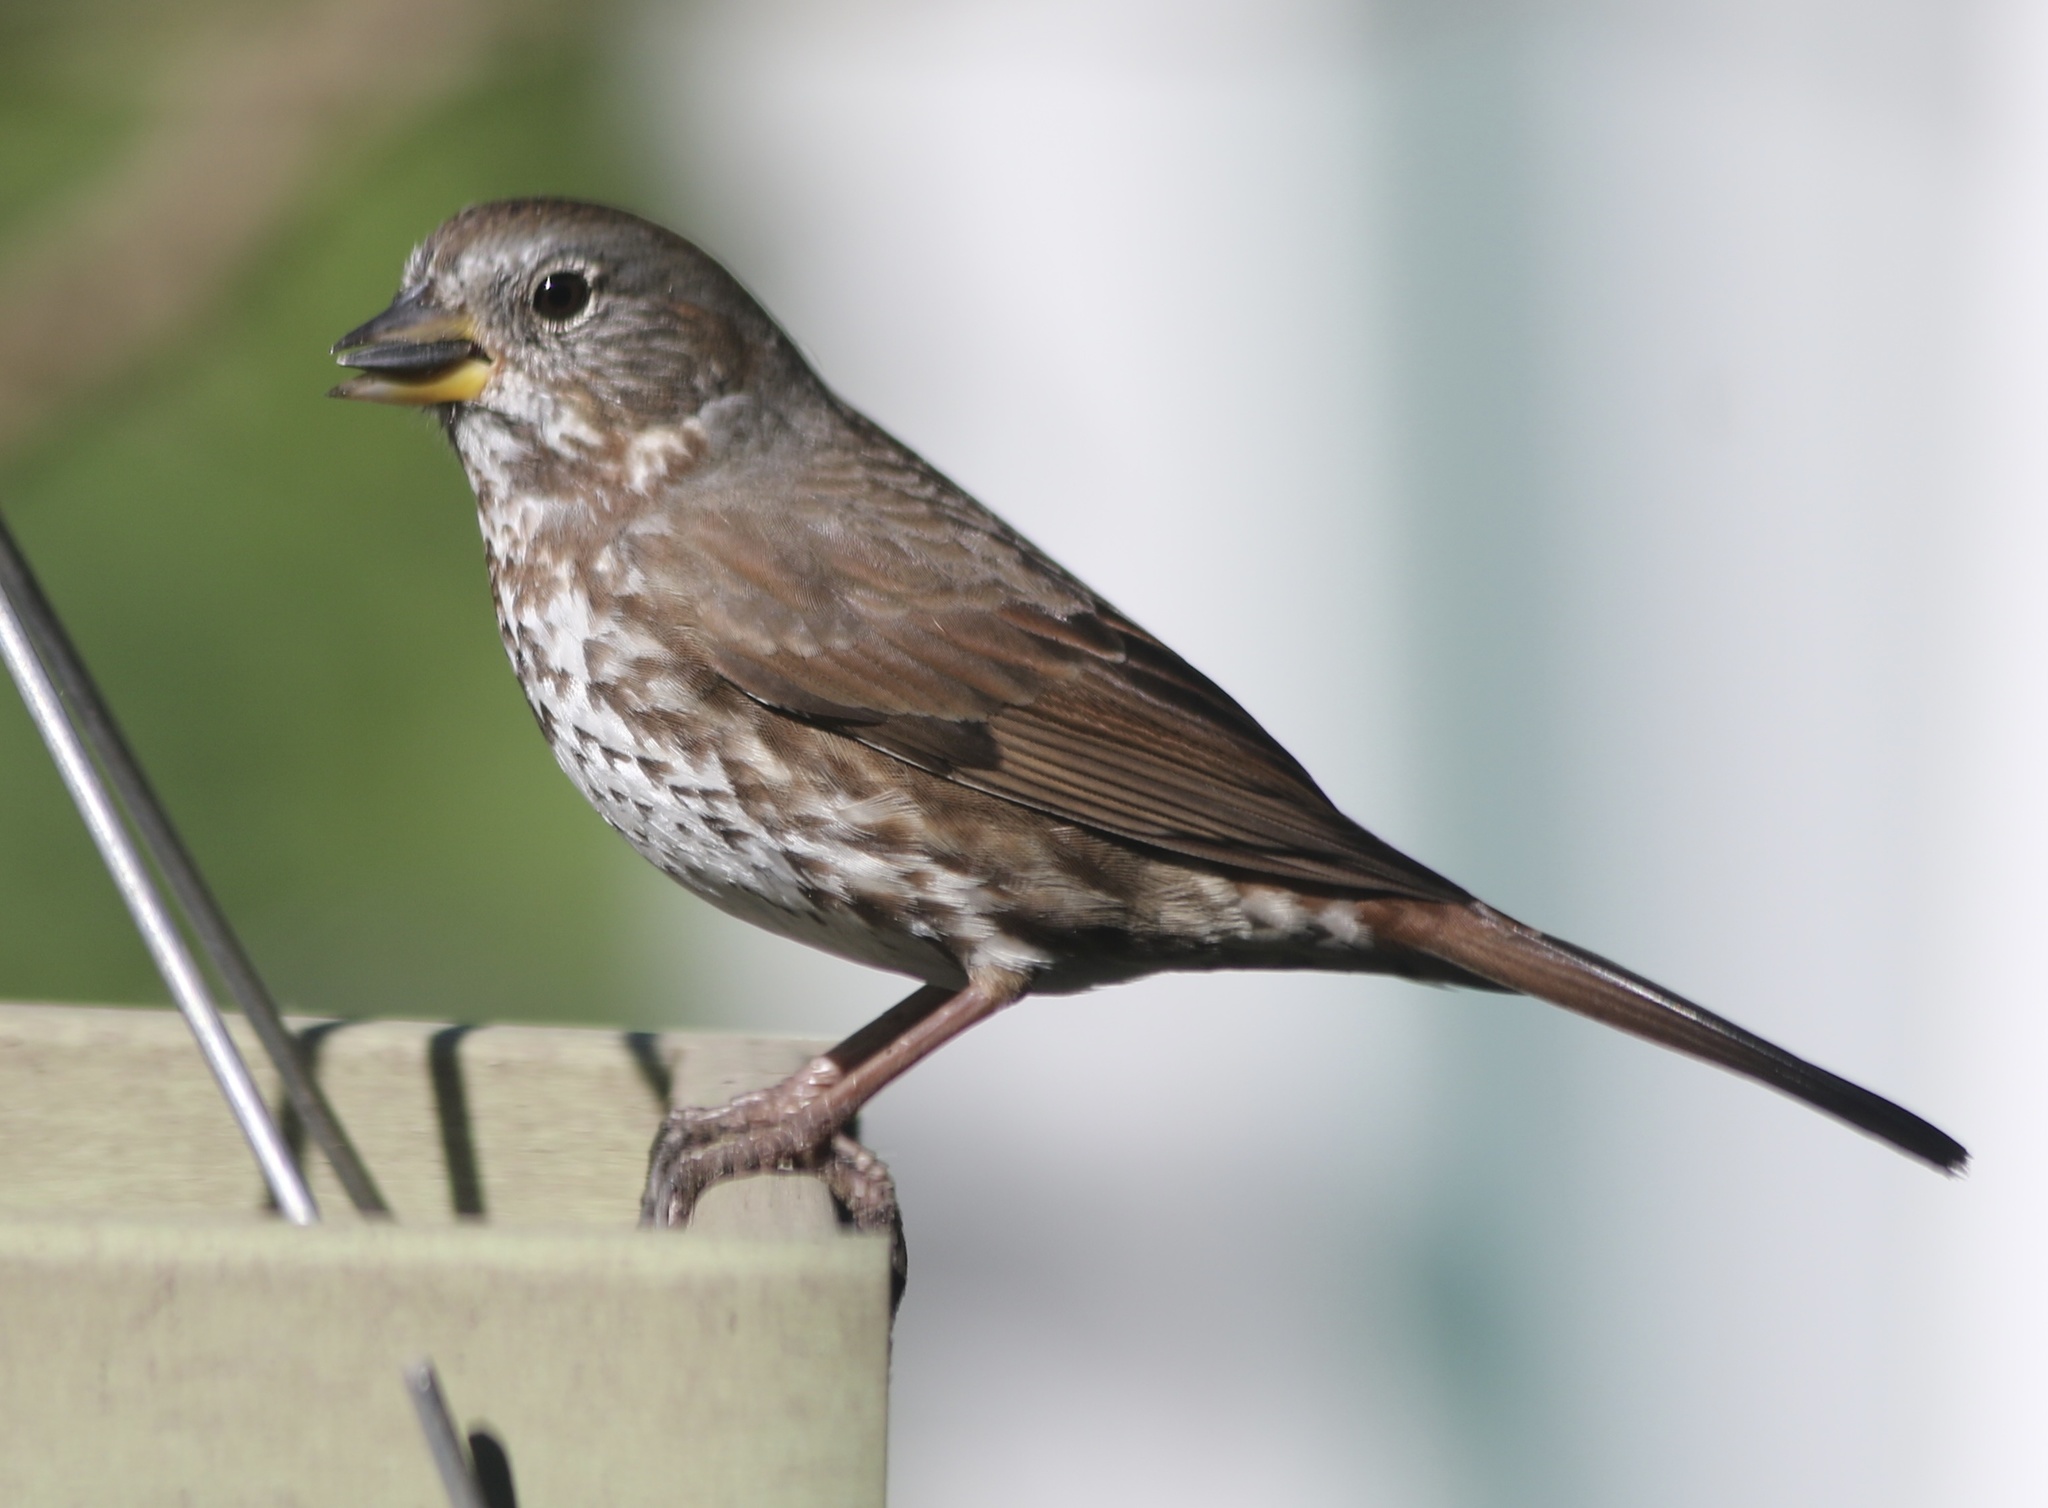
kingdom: Animalia
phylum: Chordata
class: Aves
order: Passeriformes
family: Passerellidae
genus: Passerella
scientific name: Passerella iliaca
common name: Fox sparrow
